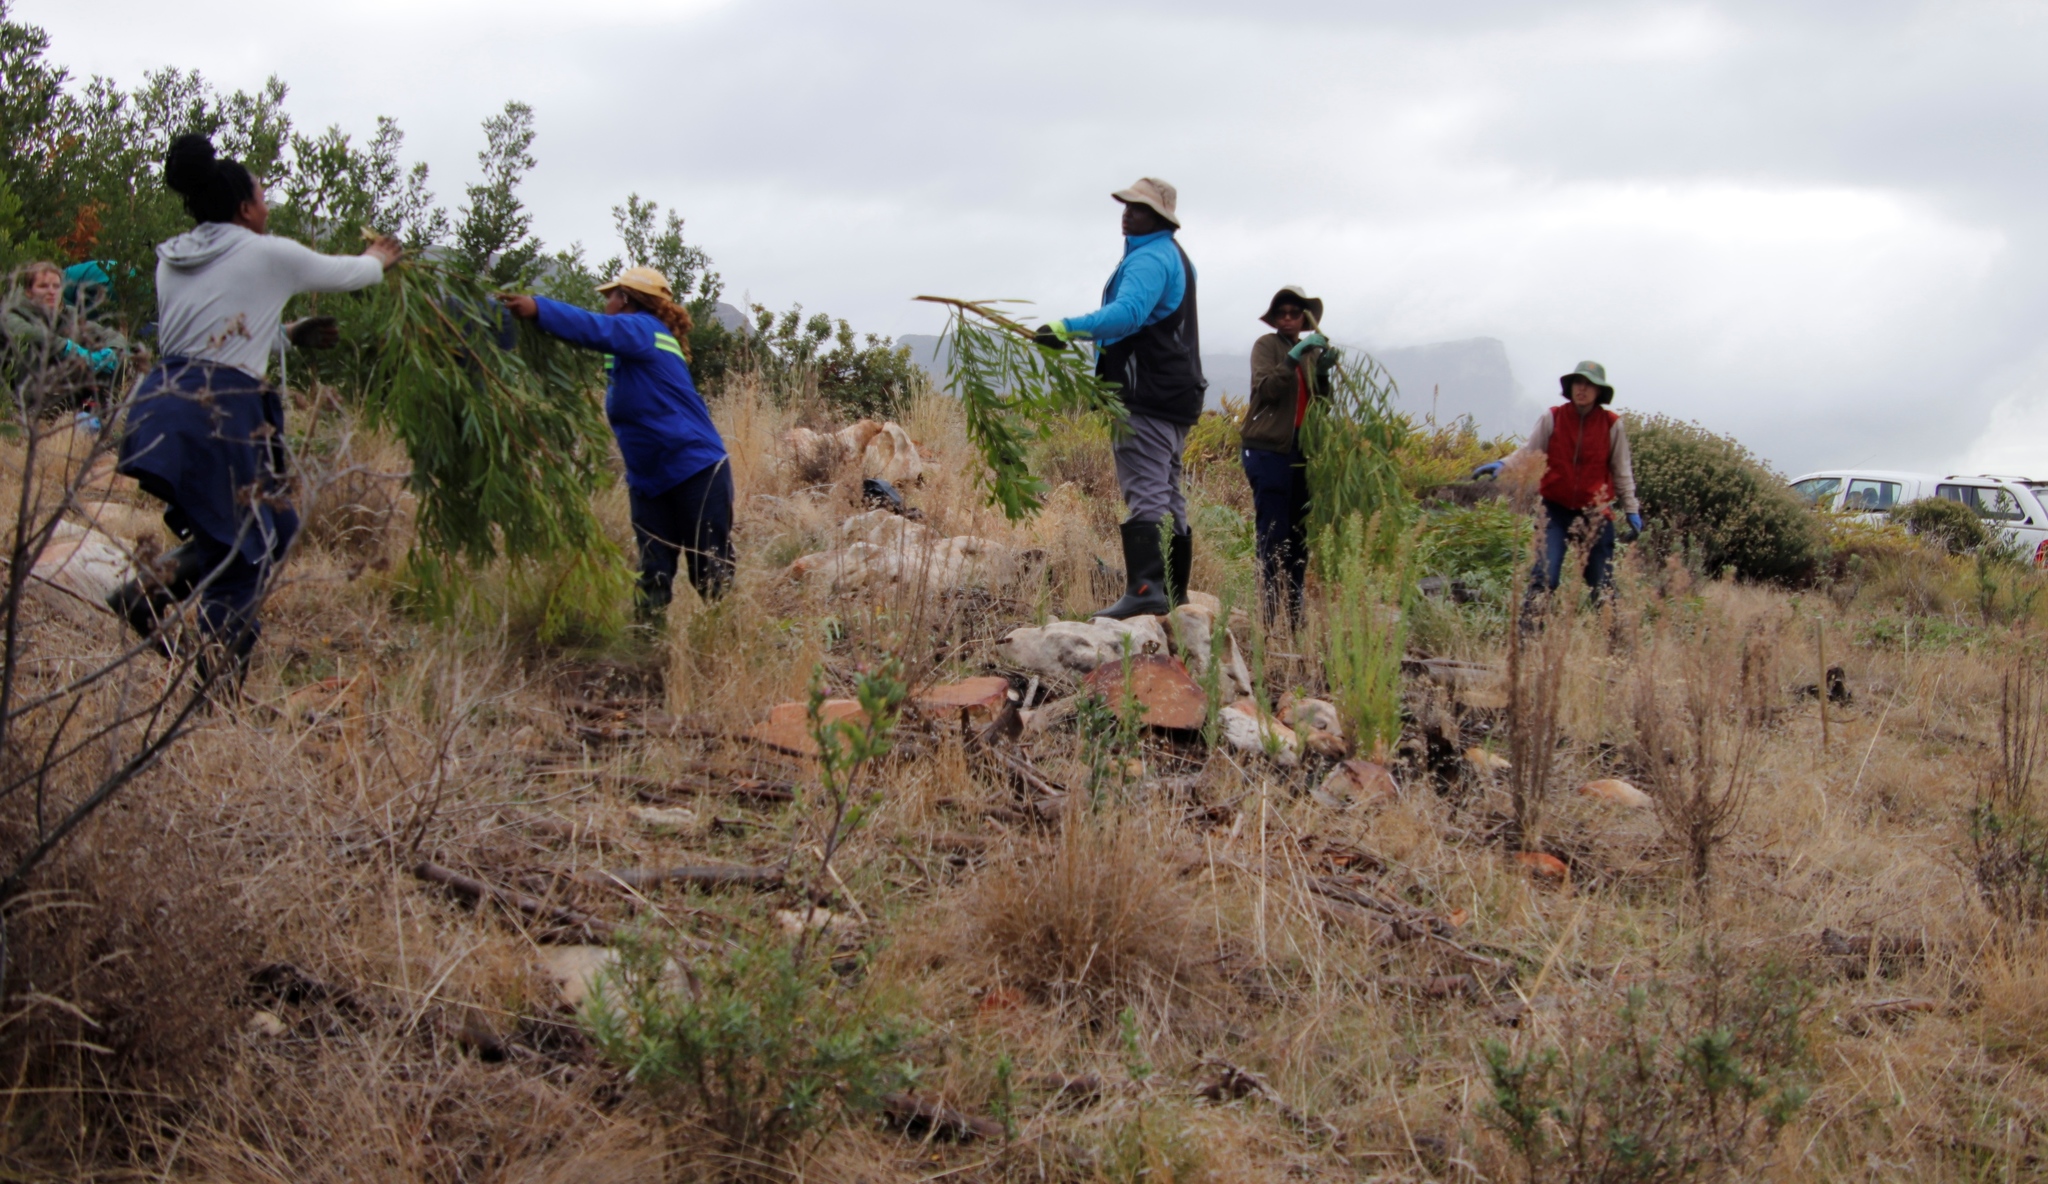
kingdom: Plantae
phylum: Tracheophyta
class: Magnoliopsida
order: Fabales
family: Fabaceae
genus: Acacia
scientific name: Acacia longifolia
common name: Sydney golden wattle
